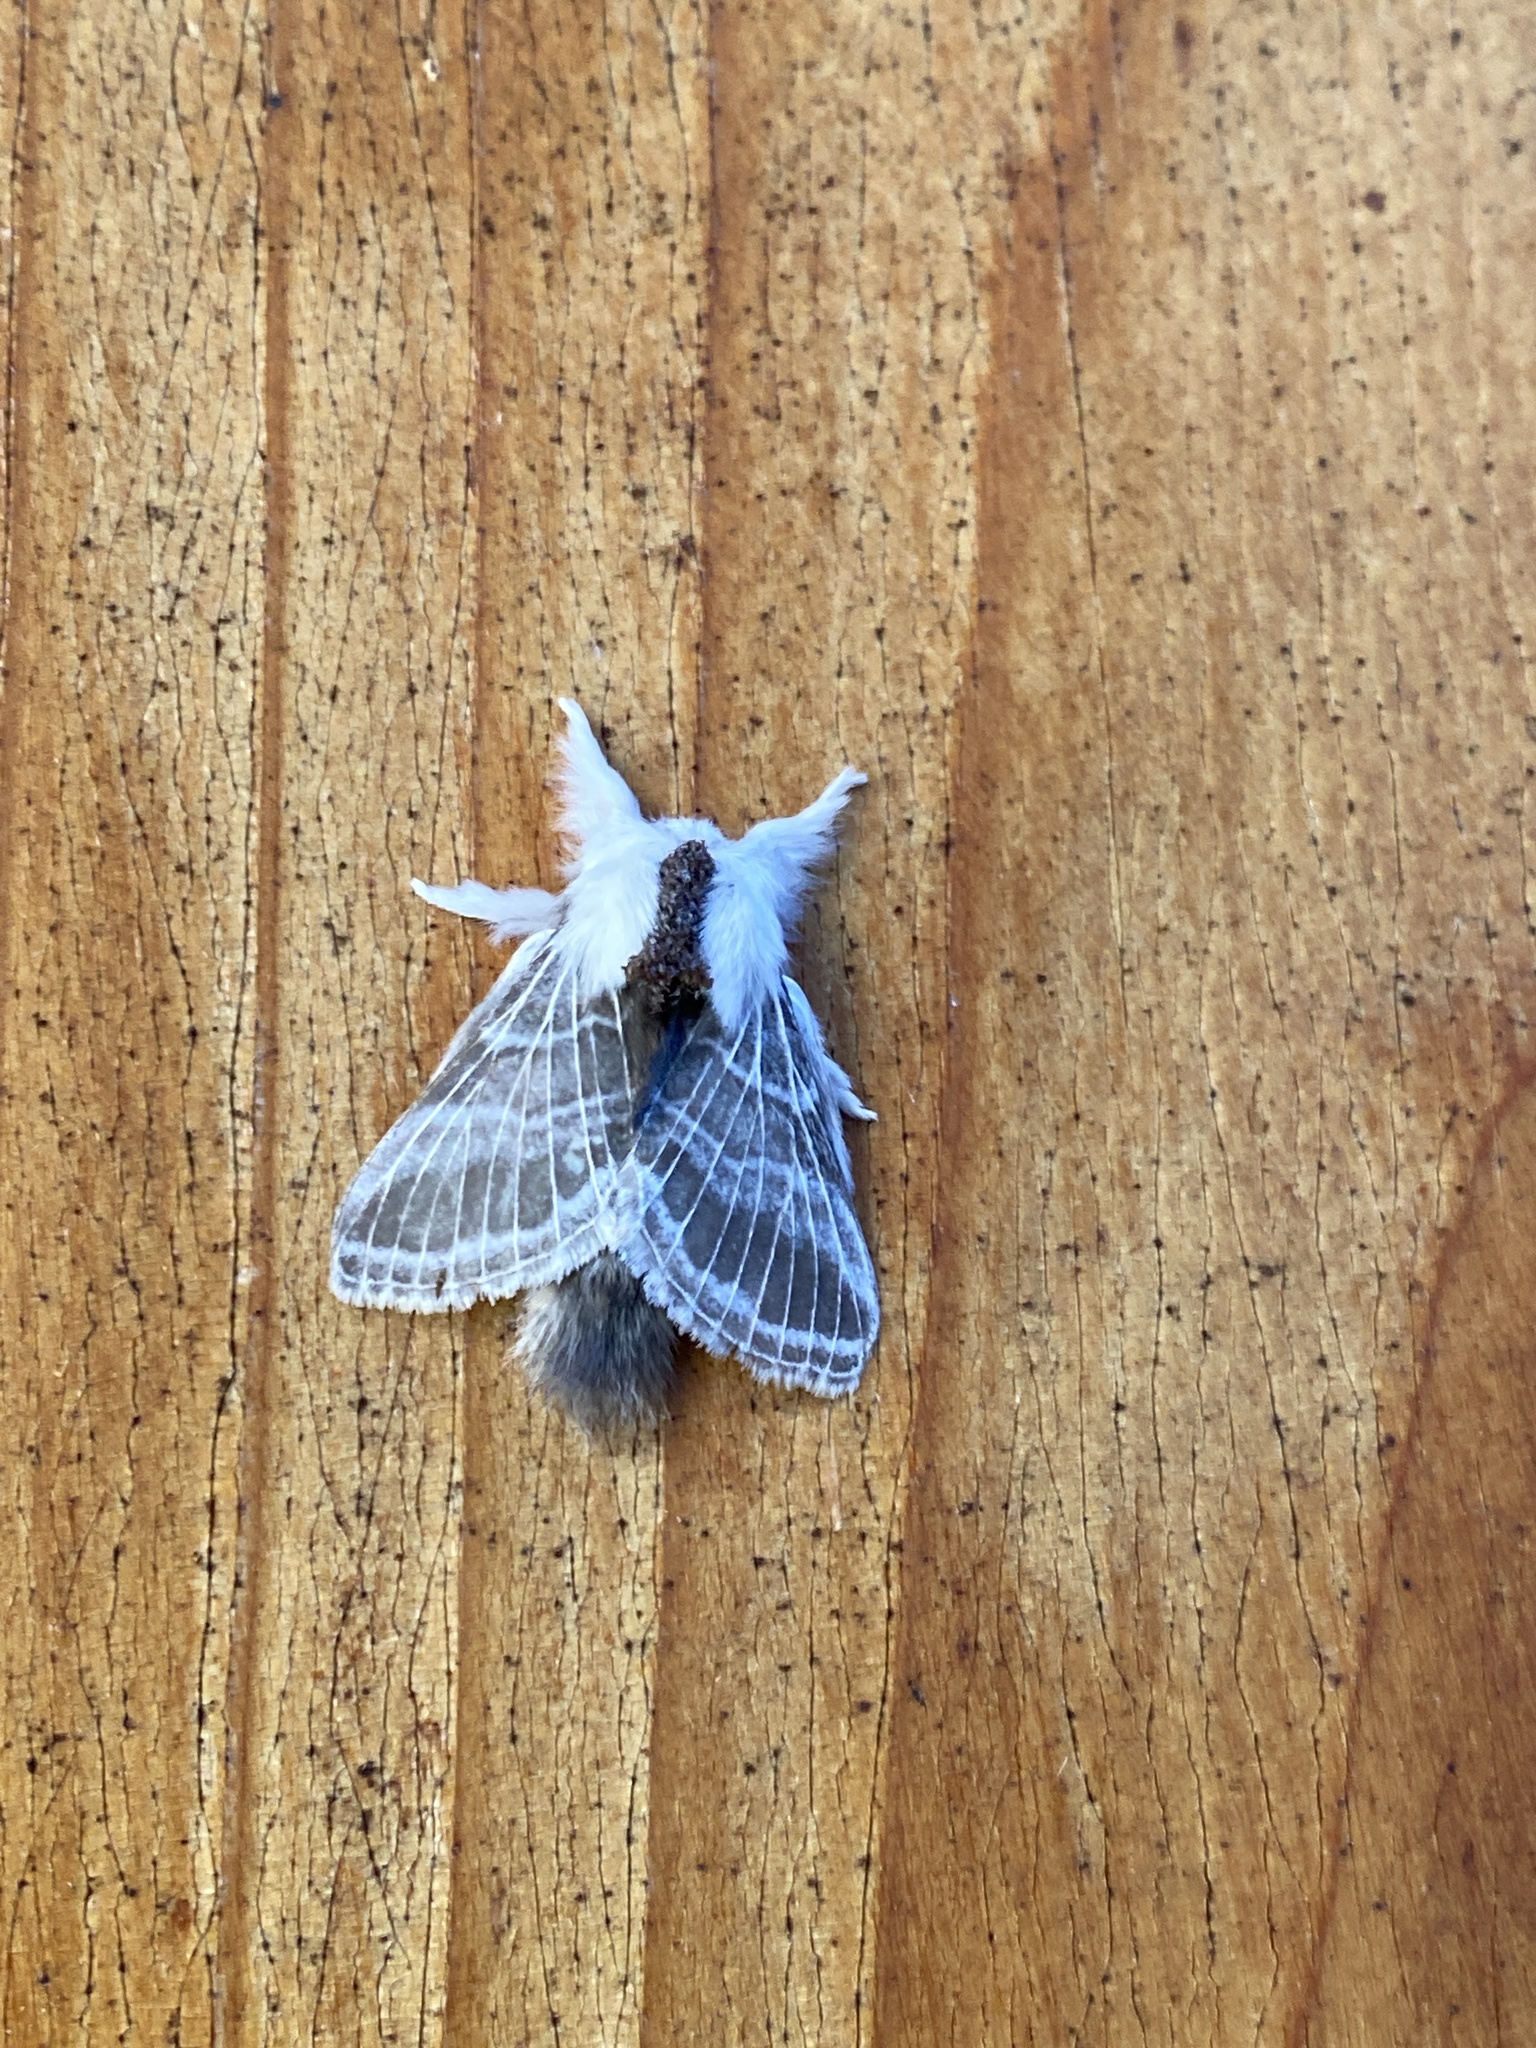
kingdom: Animalia
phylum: Arthropoda
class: Insecta
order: Lepidoptera
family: Lasiocampidae
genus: Tolype
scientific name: Tolype velleda
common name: Large tolype moth
